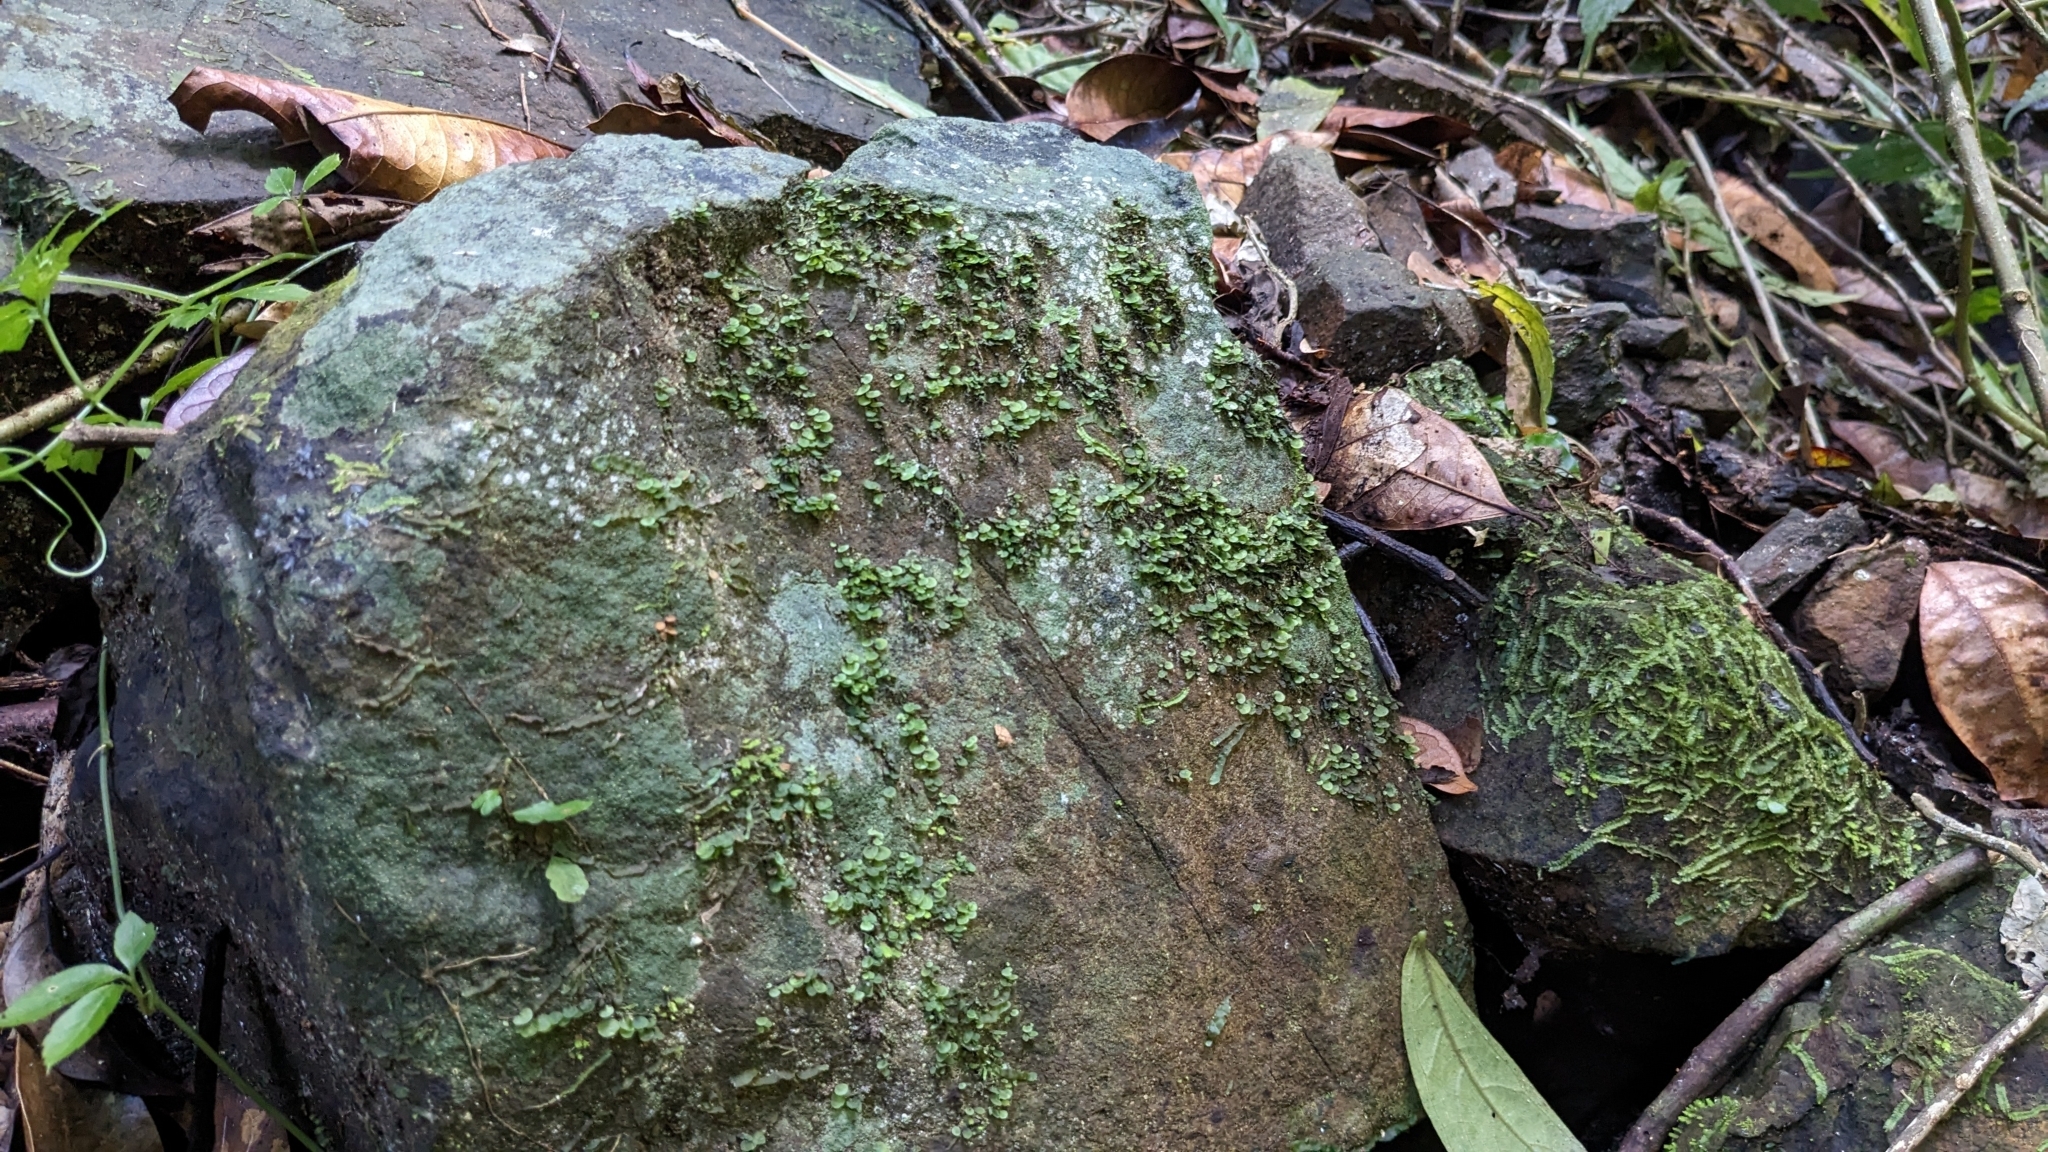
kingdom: Plantae
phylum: Tracheophyta
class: Polypodiopsida
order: Hymenophyllales
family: Hymenophyllaceae
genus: Didymoglossum
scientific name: Didymoglossum beccarianum
